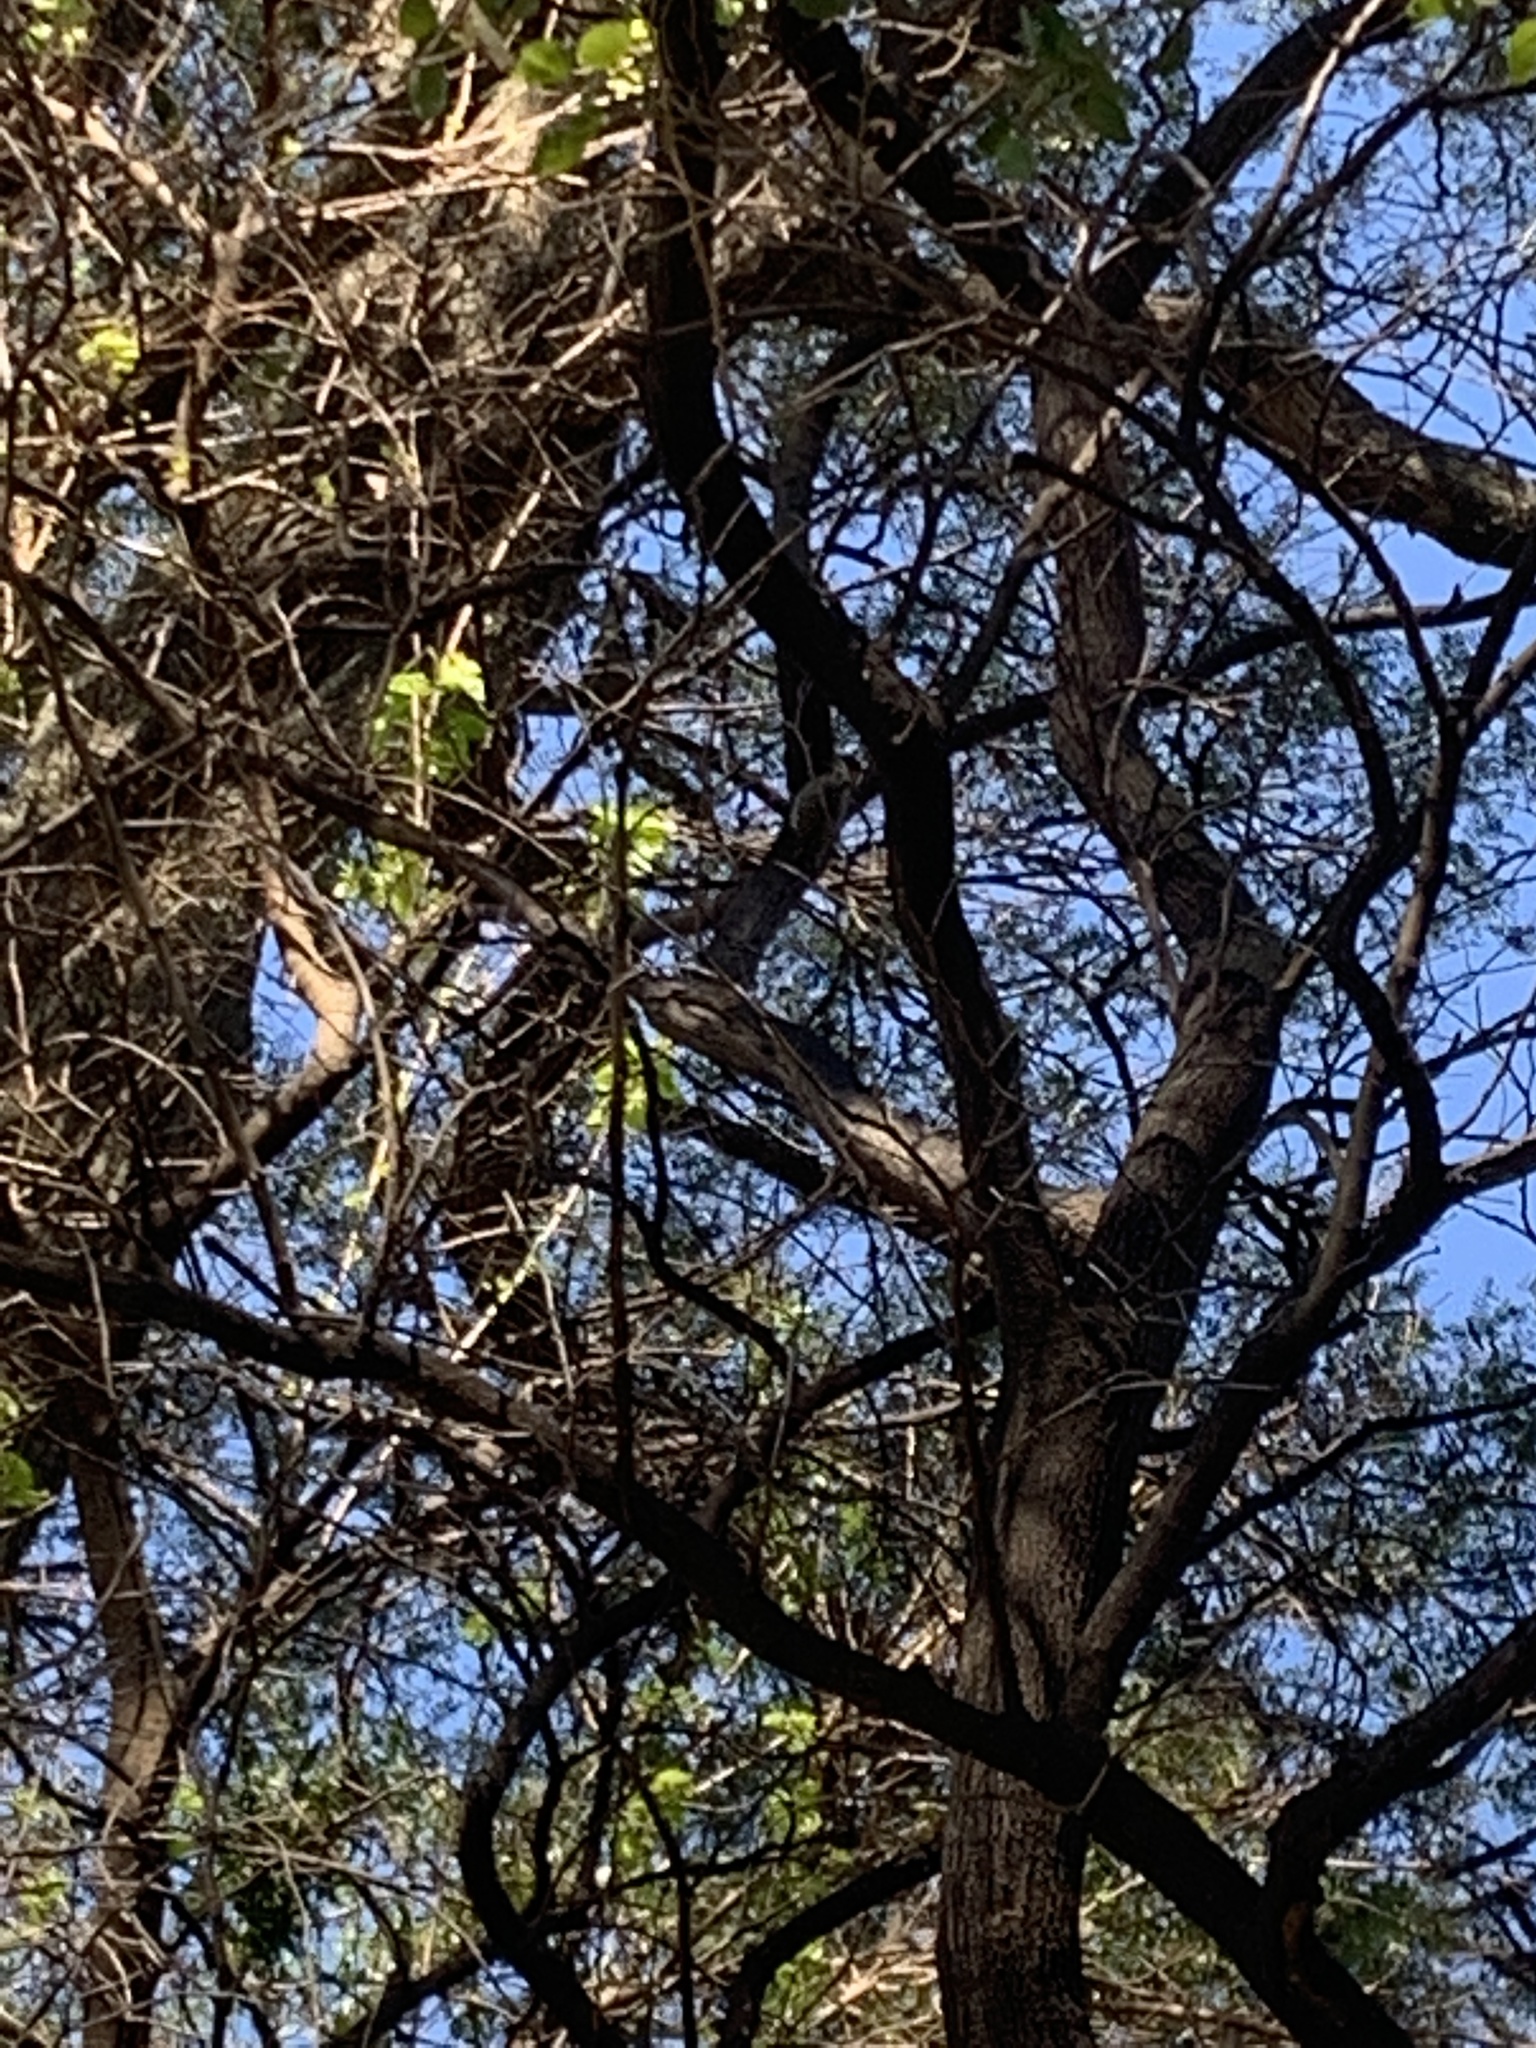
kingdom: Animalia
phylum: Chordata
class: Aves
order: Piciformes
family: Picidae
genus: Veniliornis
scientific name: Veniliornis mixtus
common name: Checkered woodpecker
